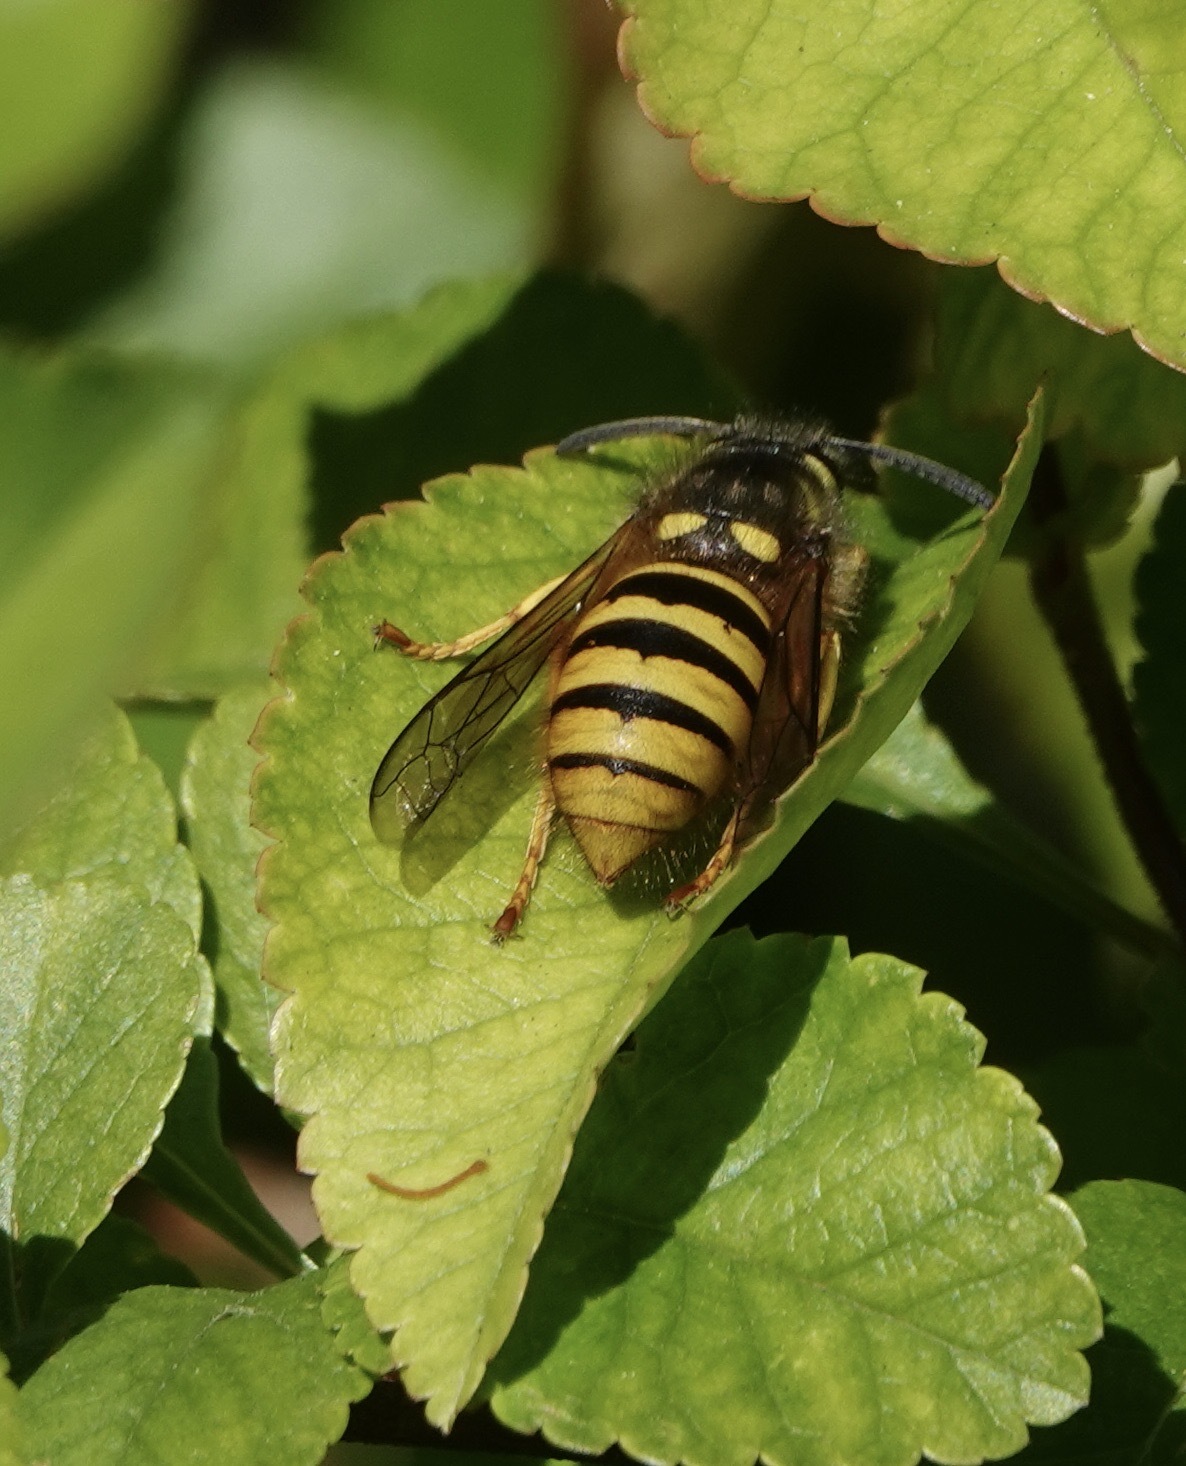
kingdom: Animalia
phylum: Arthropoda
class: Insecta
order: Hymenoptera
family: Vespidae
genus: Dolichovespula
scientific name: Dolichovespula sylvestris
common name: Tree wasp
